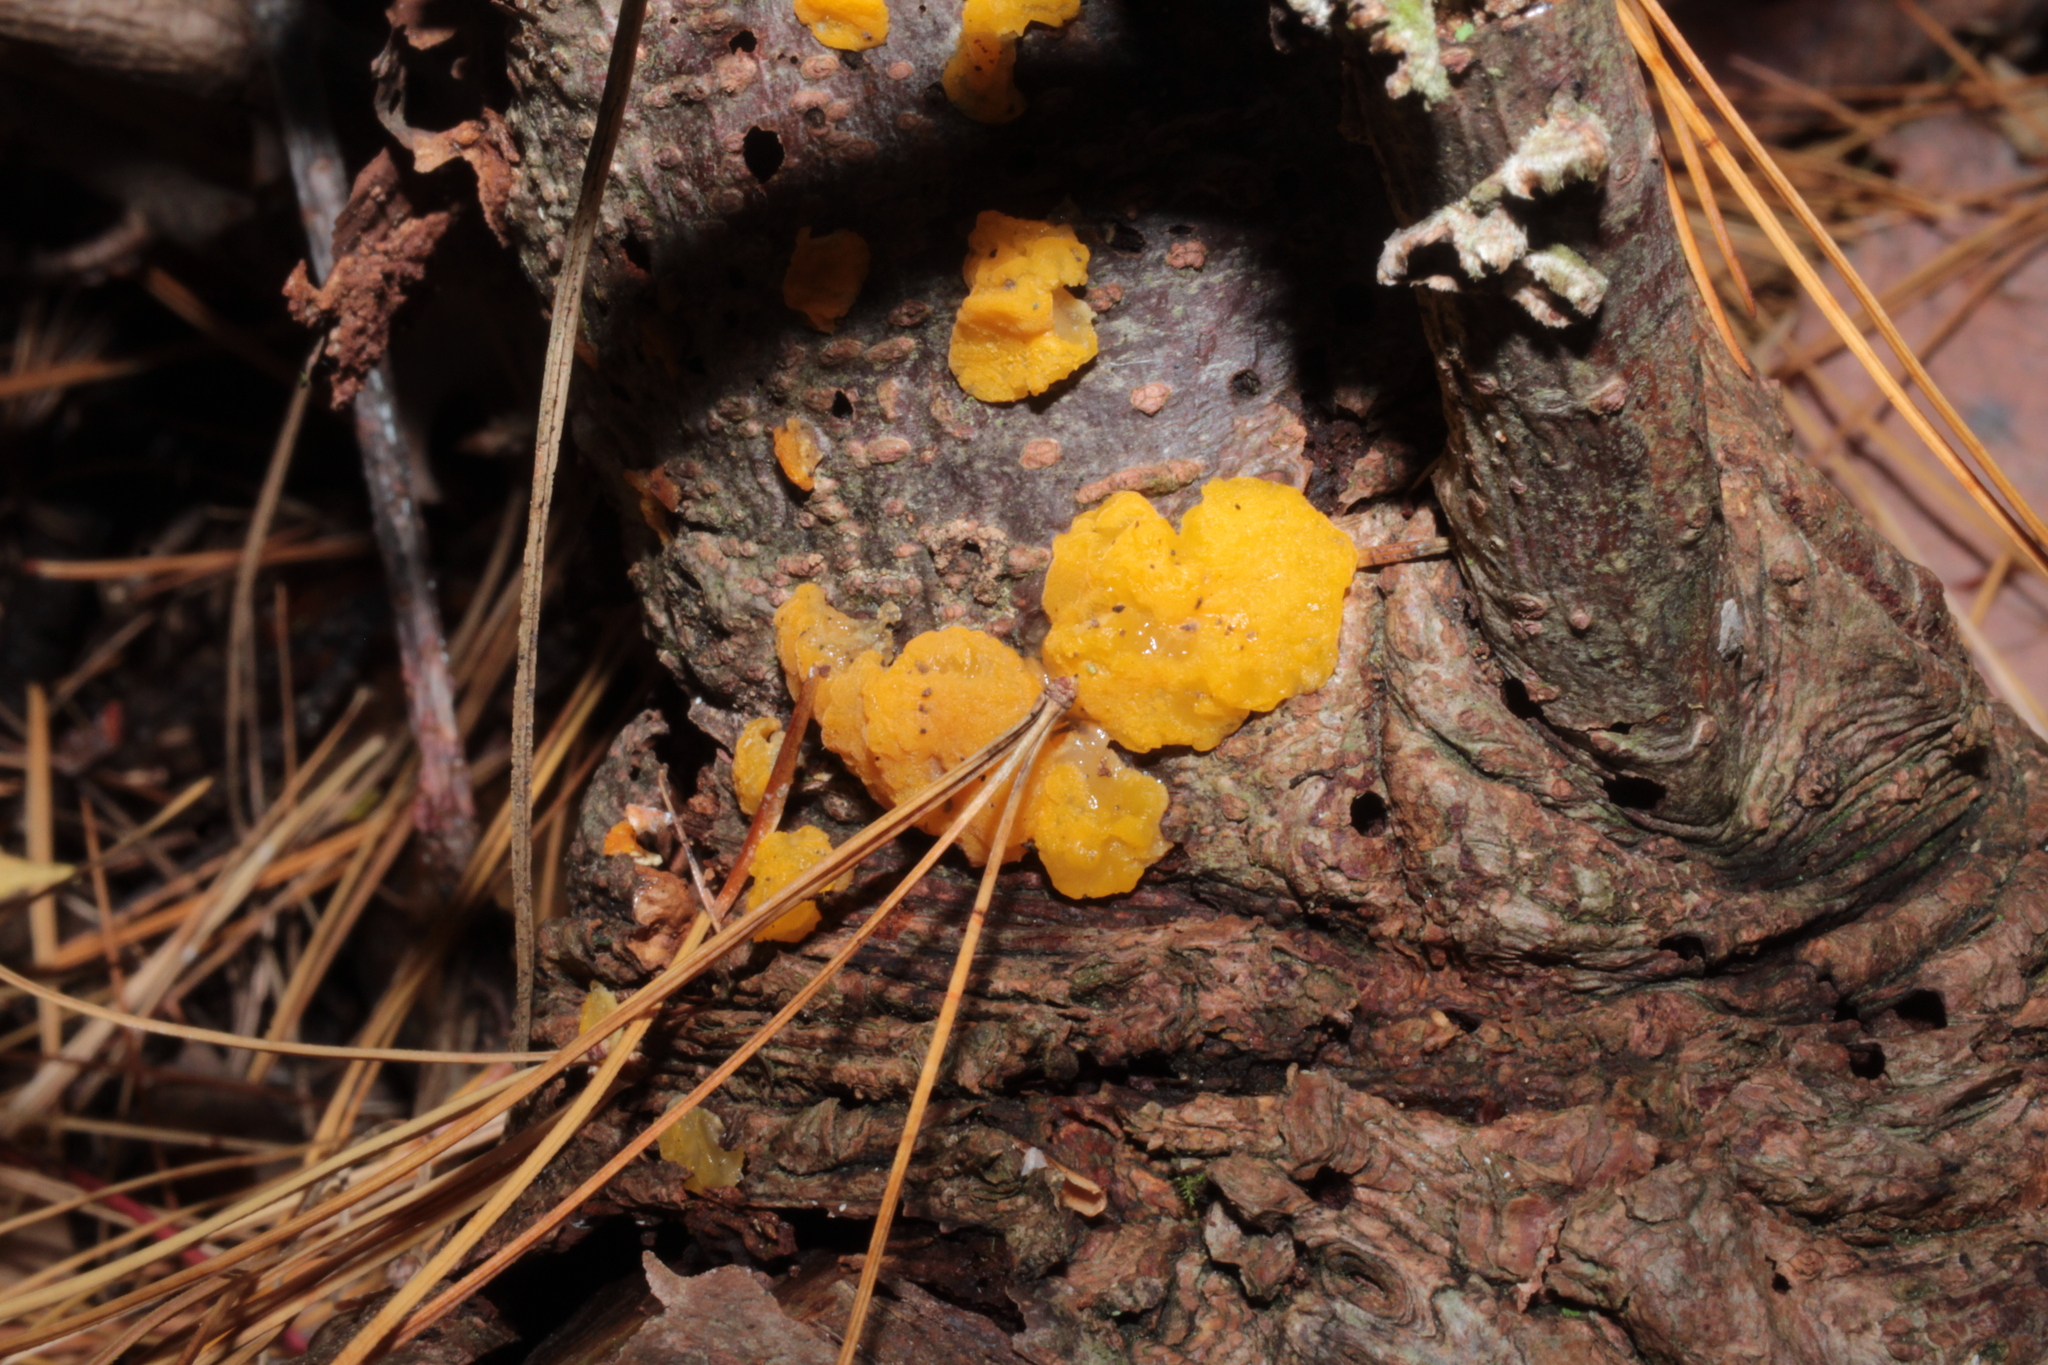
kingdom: Fungi
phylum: Basidiomycota
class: Tremellomycetes
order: Tremellales
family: Tremellaceae
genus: Tremella
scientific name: Tremella mesenterica
